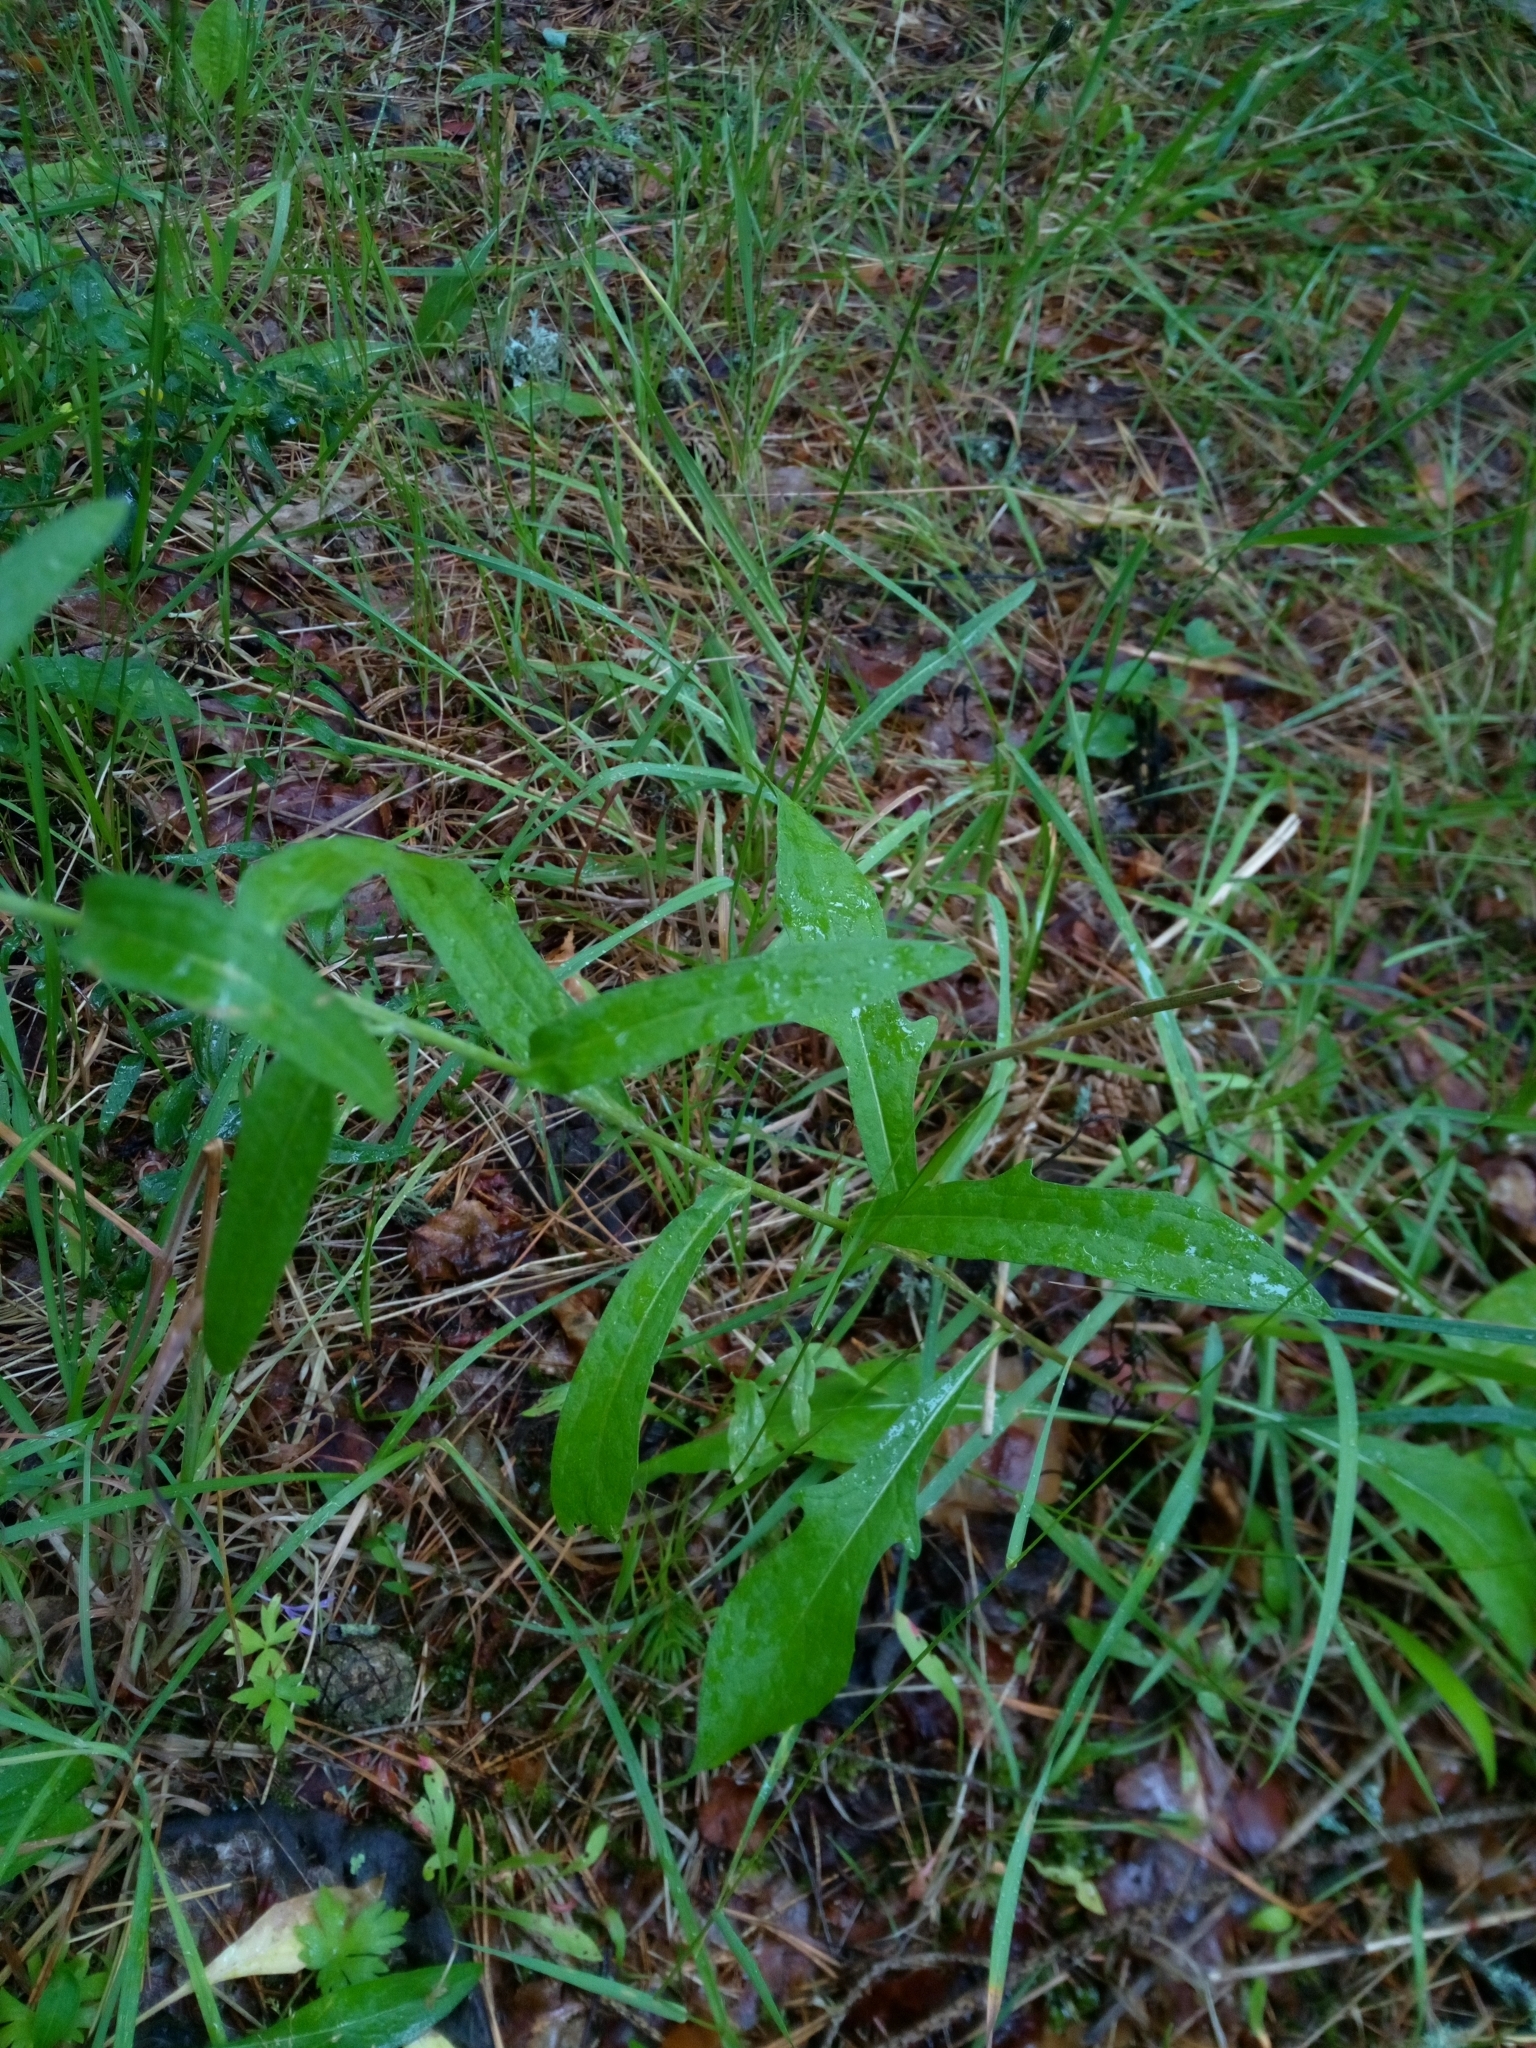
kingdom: Plantae
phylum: Tracheophyta
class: Magnoliopsida
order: Asterales
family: Asteraceae
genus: Centaurea
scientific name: Centaurea jacea
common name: Brown knapweed
